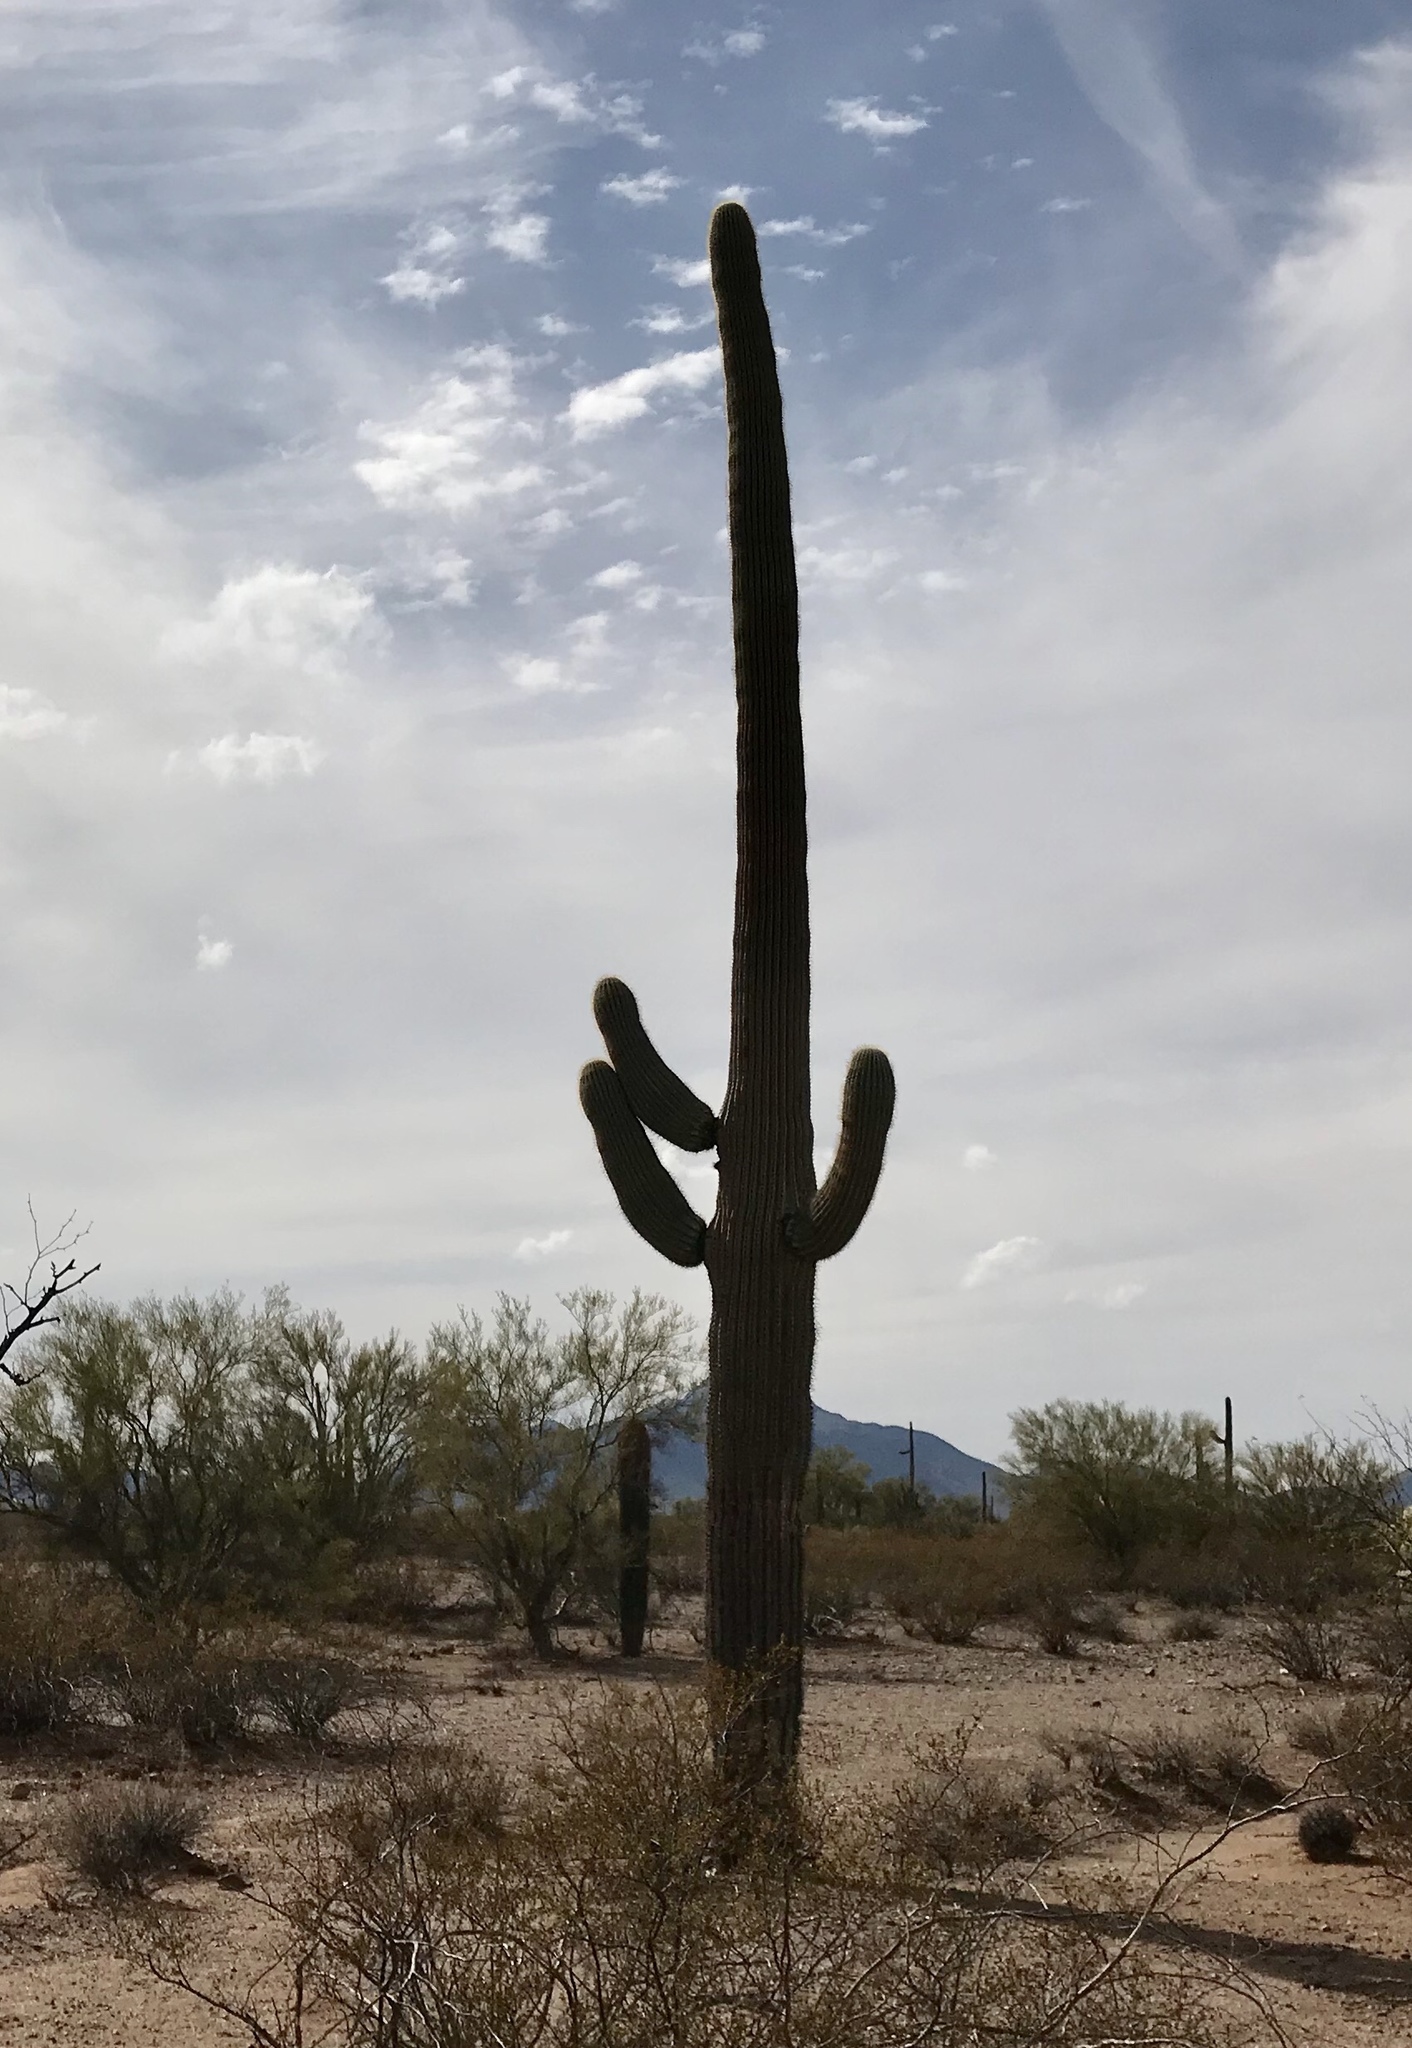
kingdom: Plantae
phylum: Tracheophyta
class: Magnoliopsida
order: Caryophyllales
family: Cactaceae
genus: Carnegiea
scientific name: Carnegiea gigantea
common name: Saguaro
